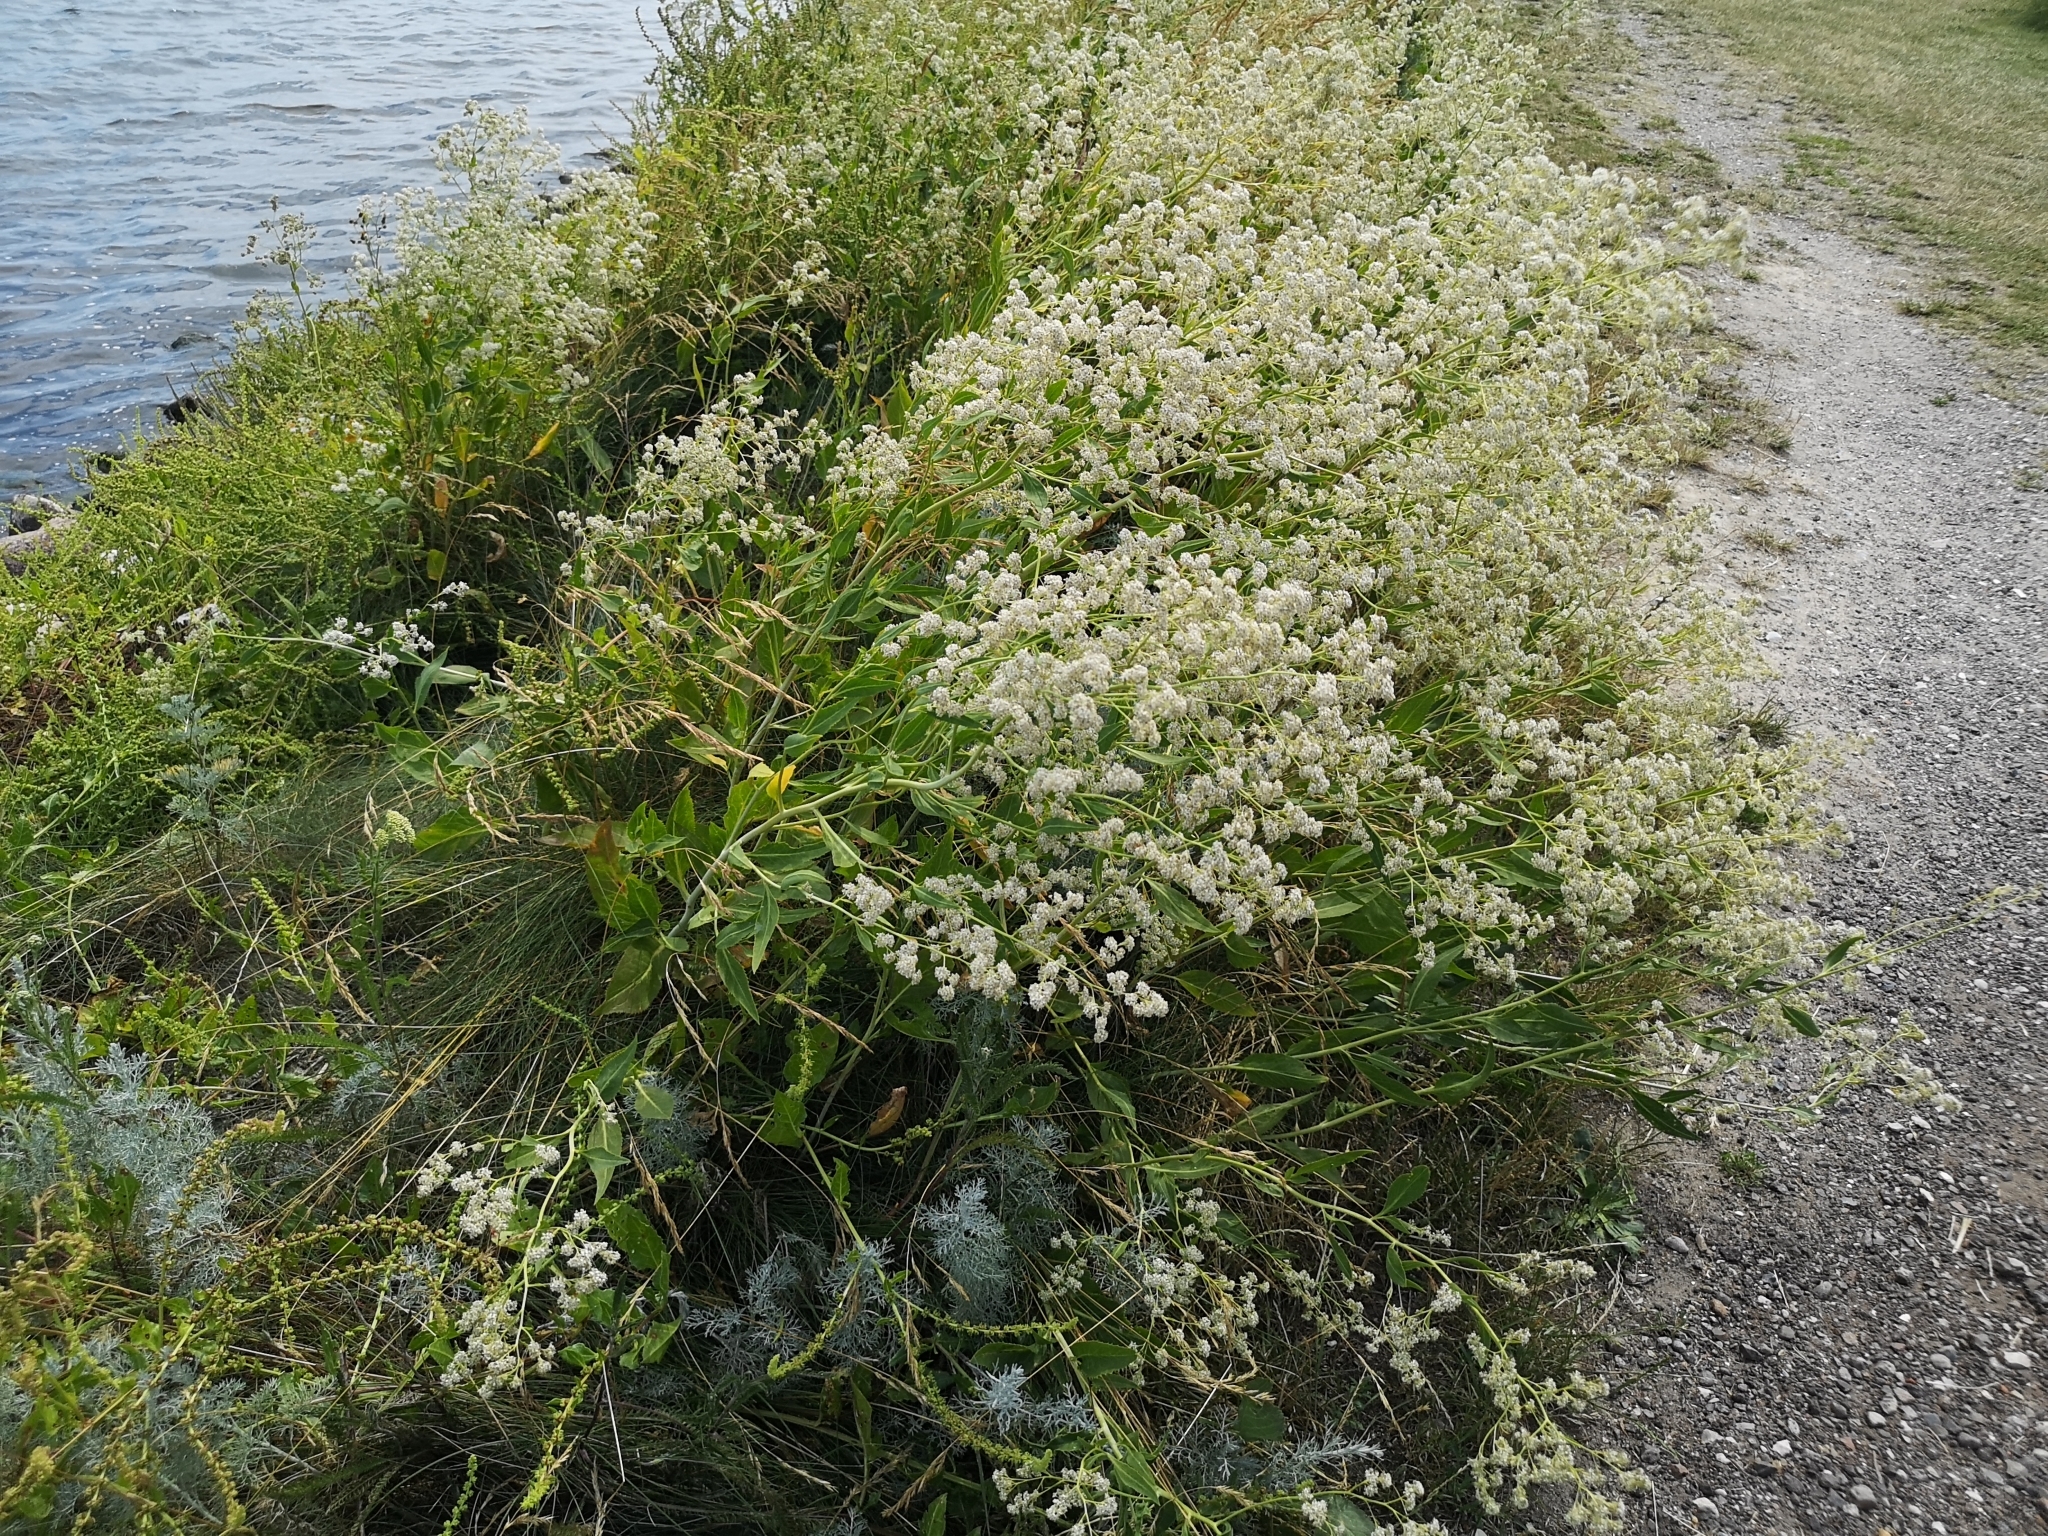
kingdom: Plantae
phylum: Tracheophyta
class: Magnoliopsida
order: Brassicales
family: Brassicaceae
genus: Lepidium
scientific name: Lepidium latifolium
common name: Dittander
